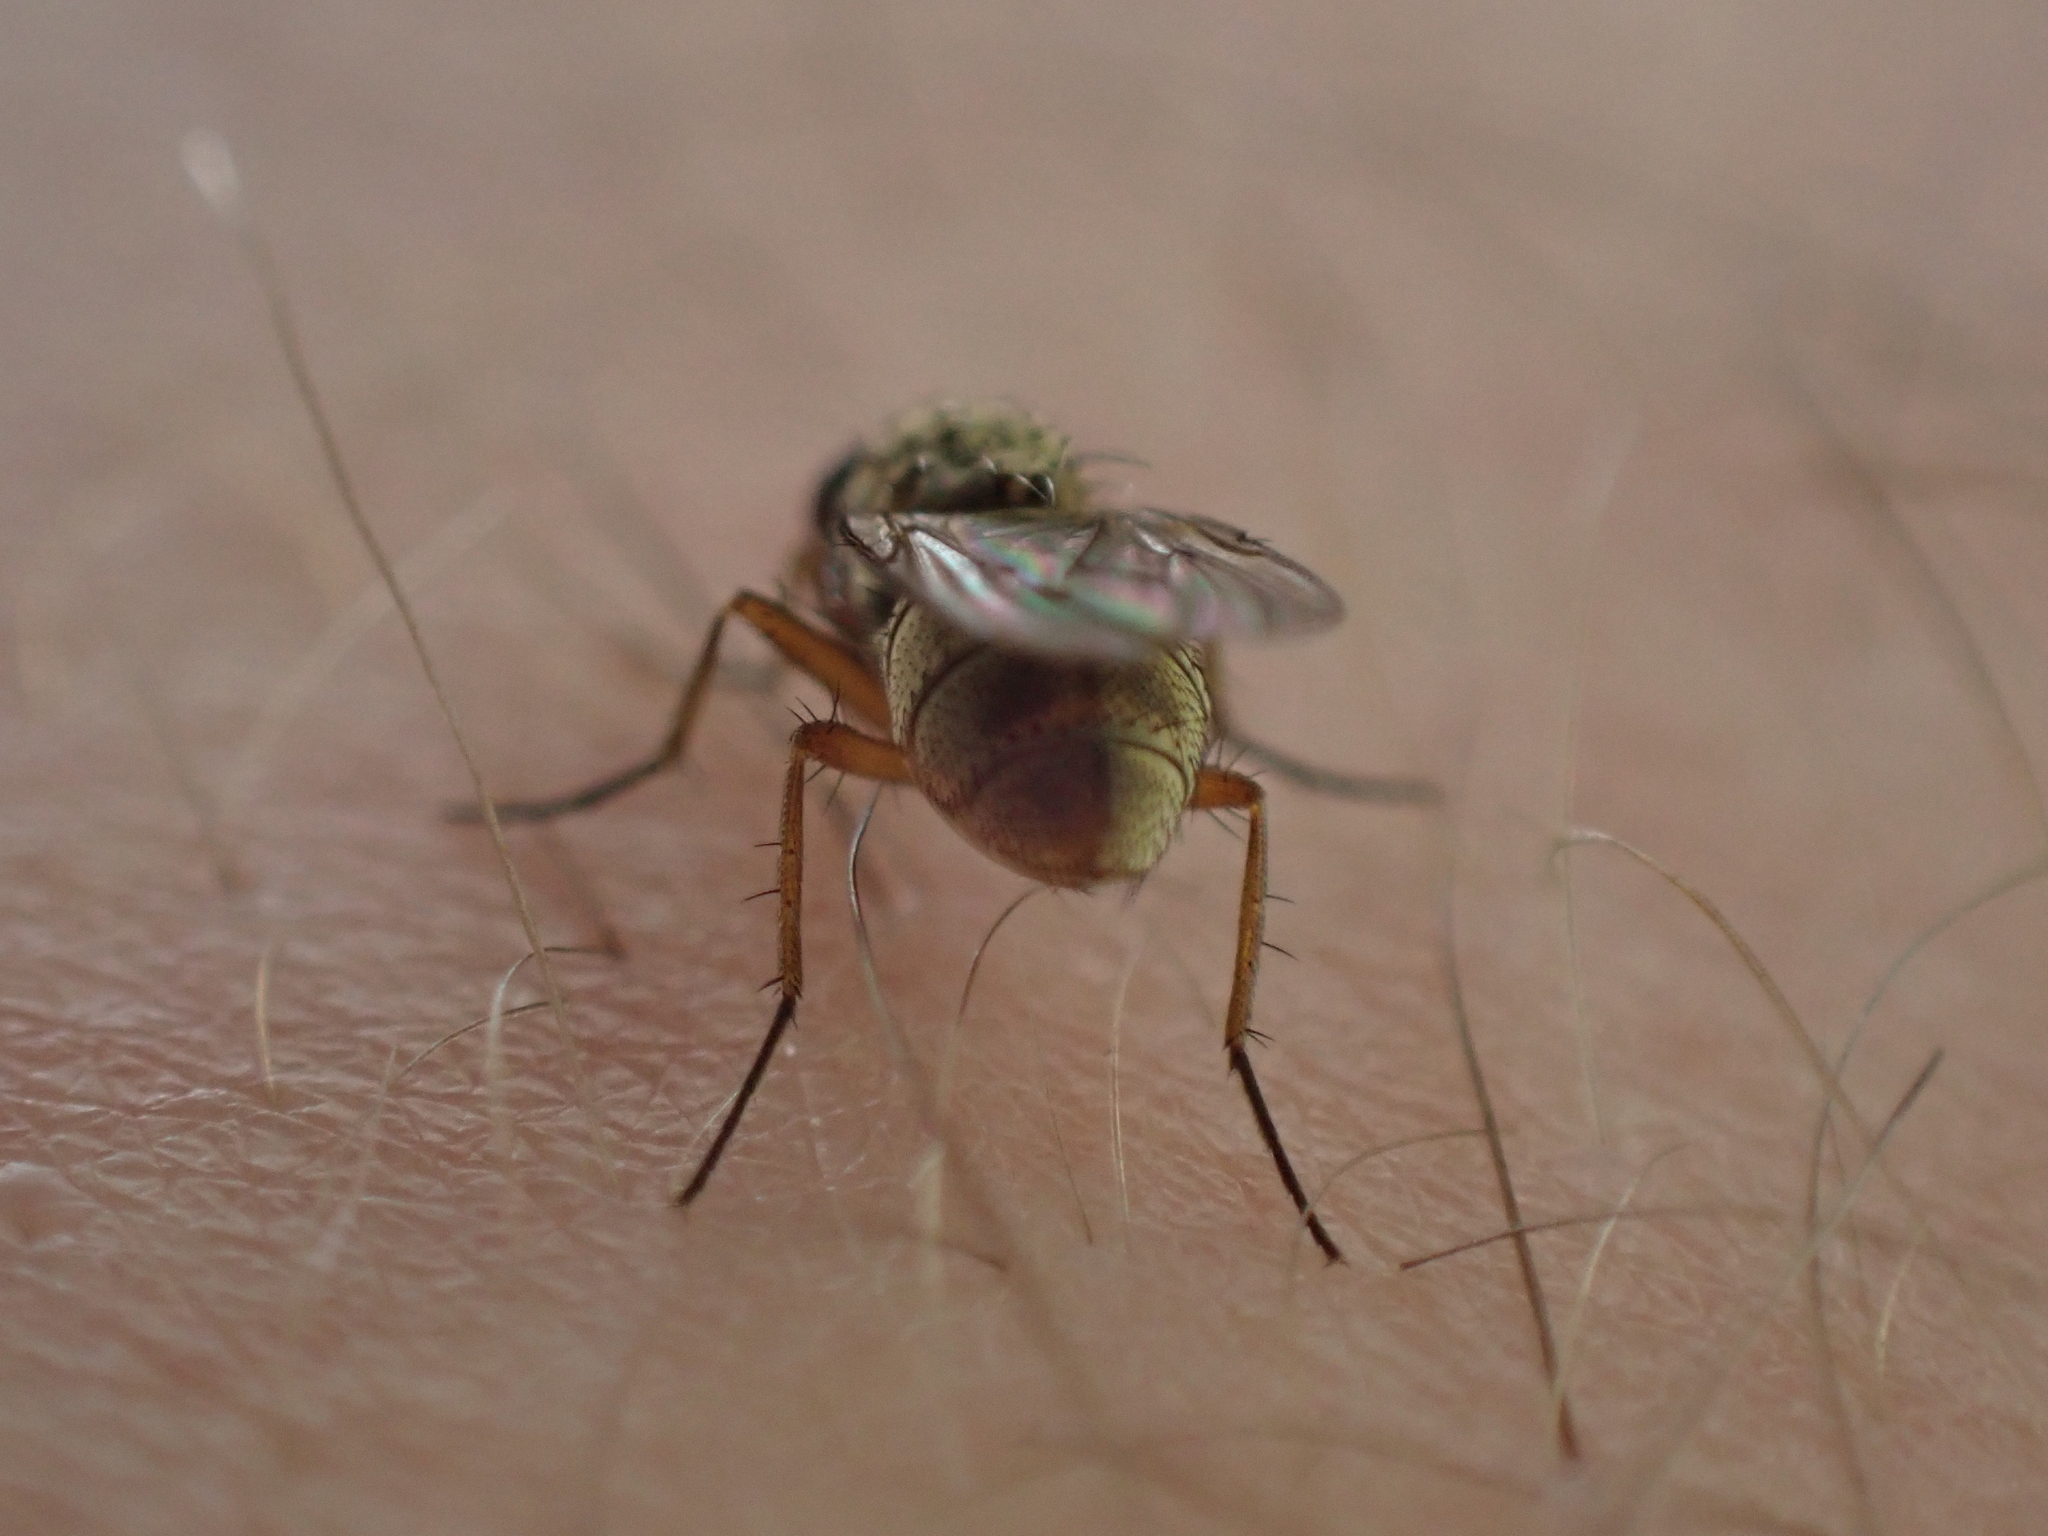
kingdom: Animalia
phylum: Arthropoda
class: Insecta
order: Diptera
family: Anthomyiidae
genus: Eutrichota
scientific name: Eutrichota affinis
